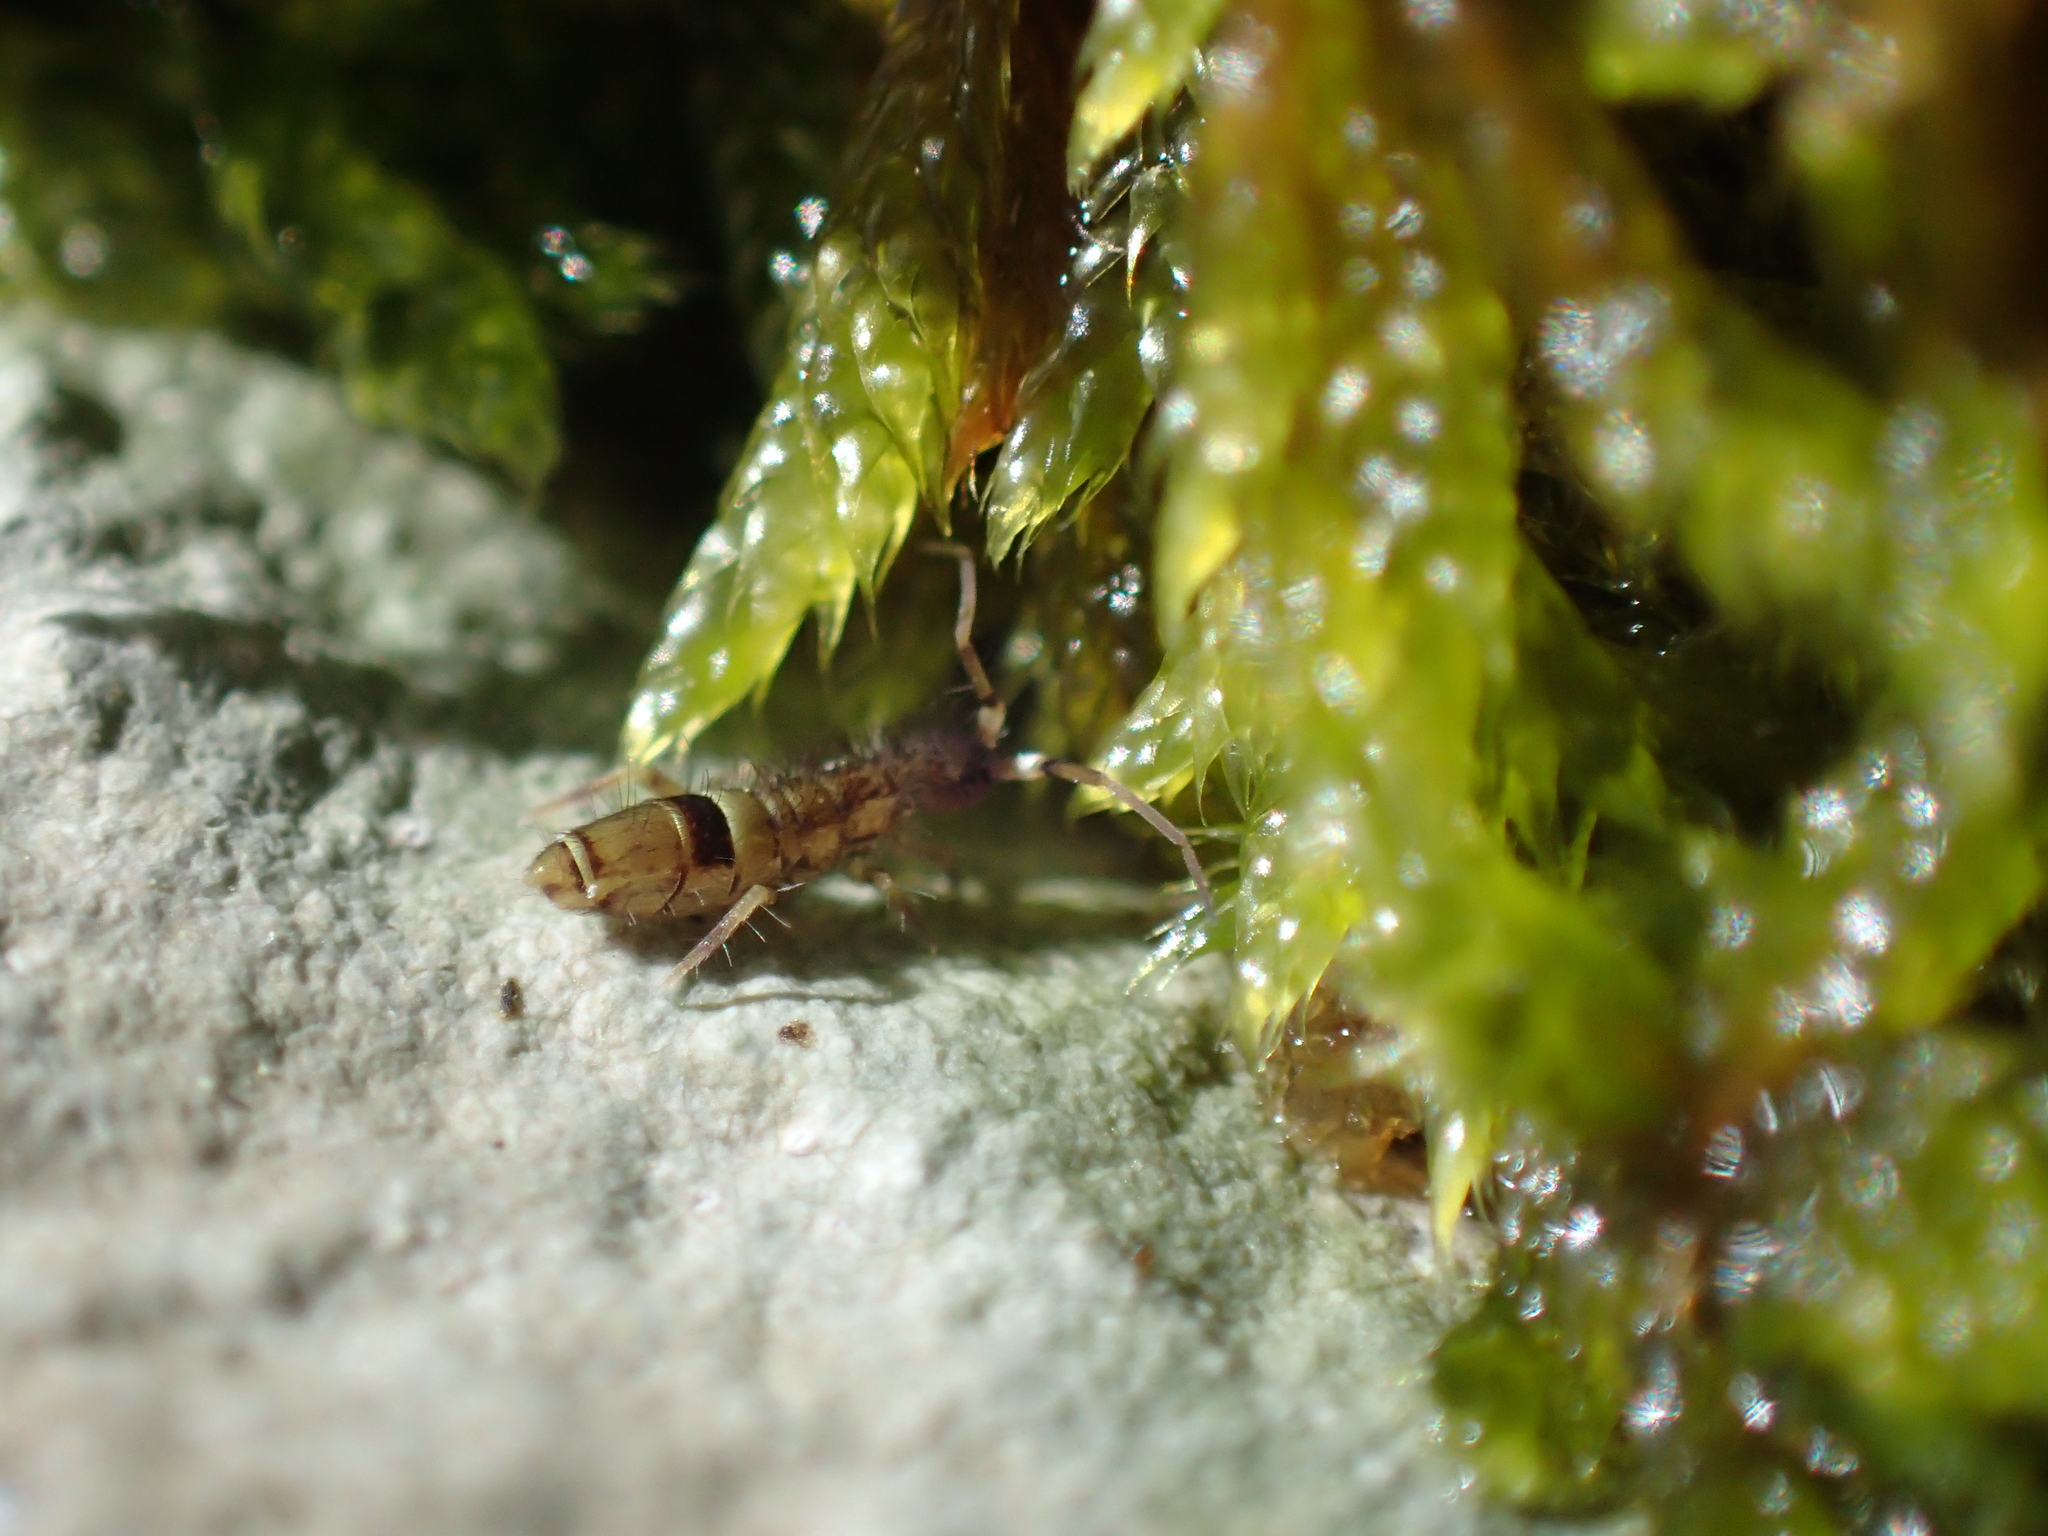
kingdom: Animalia
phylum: Arthropoda
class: Collembola
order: Entomobryomorpha
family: Orchesellidae
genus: Orchesella
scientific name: Orchesella cincta
